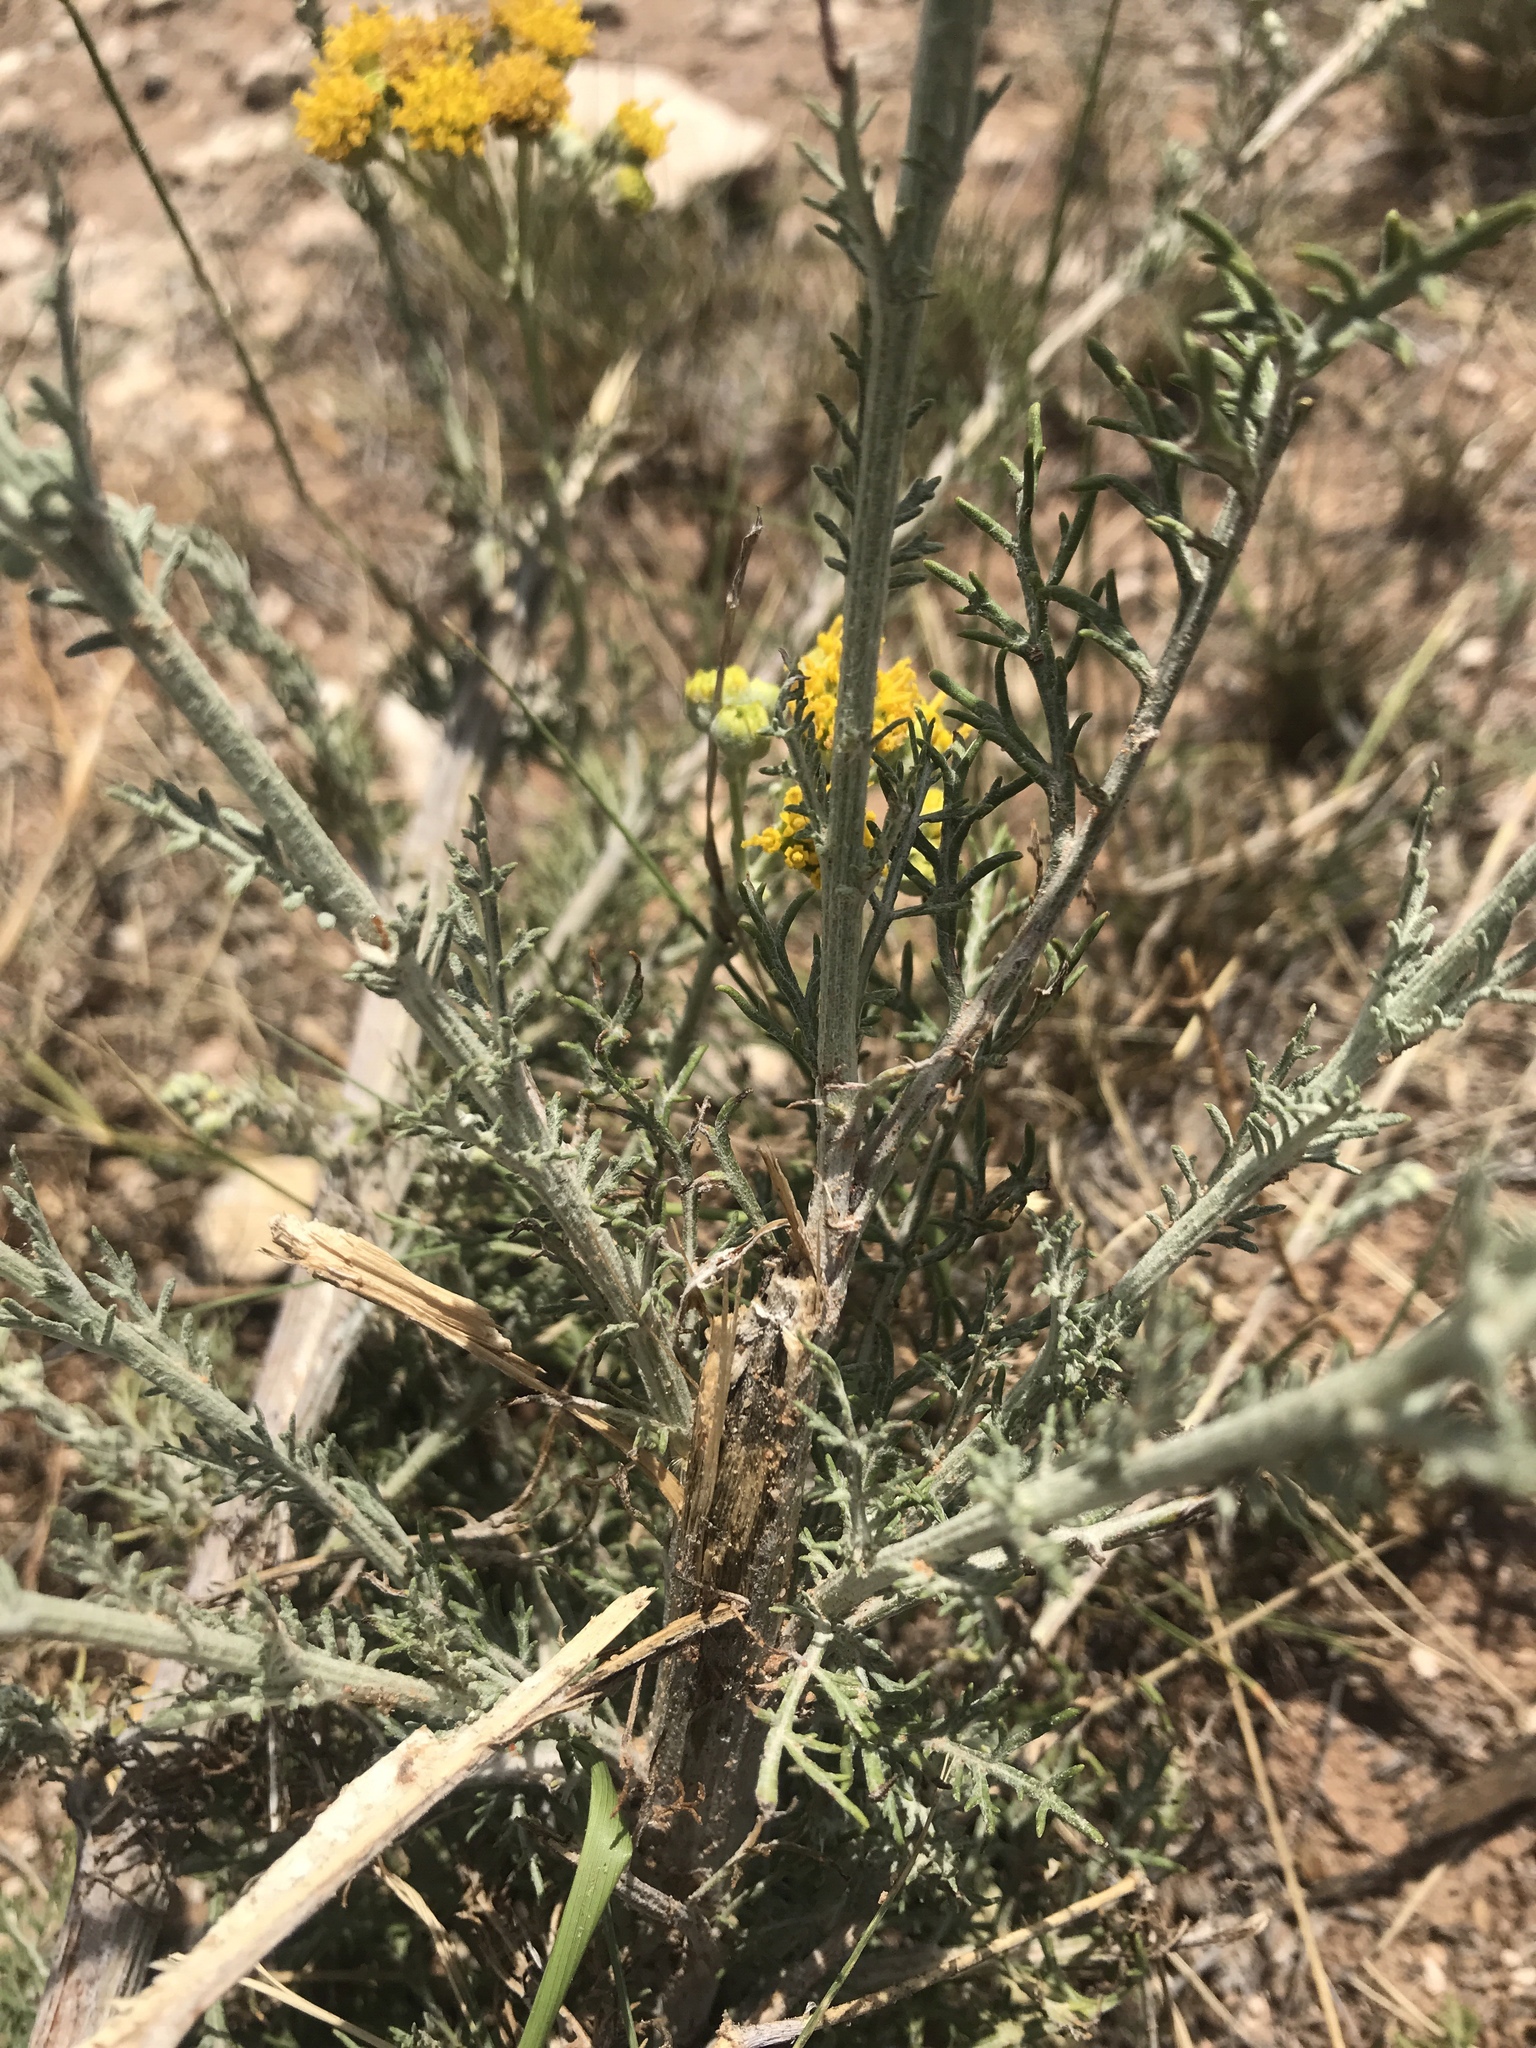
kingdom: Plantae
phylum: Tracheophyta
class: Magnoliopsida
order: Asterales
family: Asteraceae
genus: Hymenopappus
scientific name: Hymenopappus flavescens
